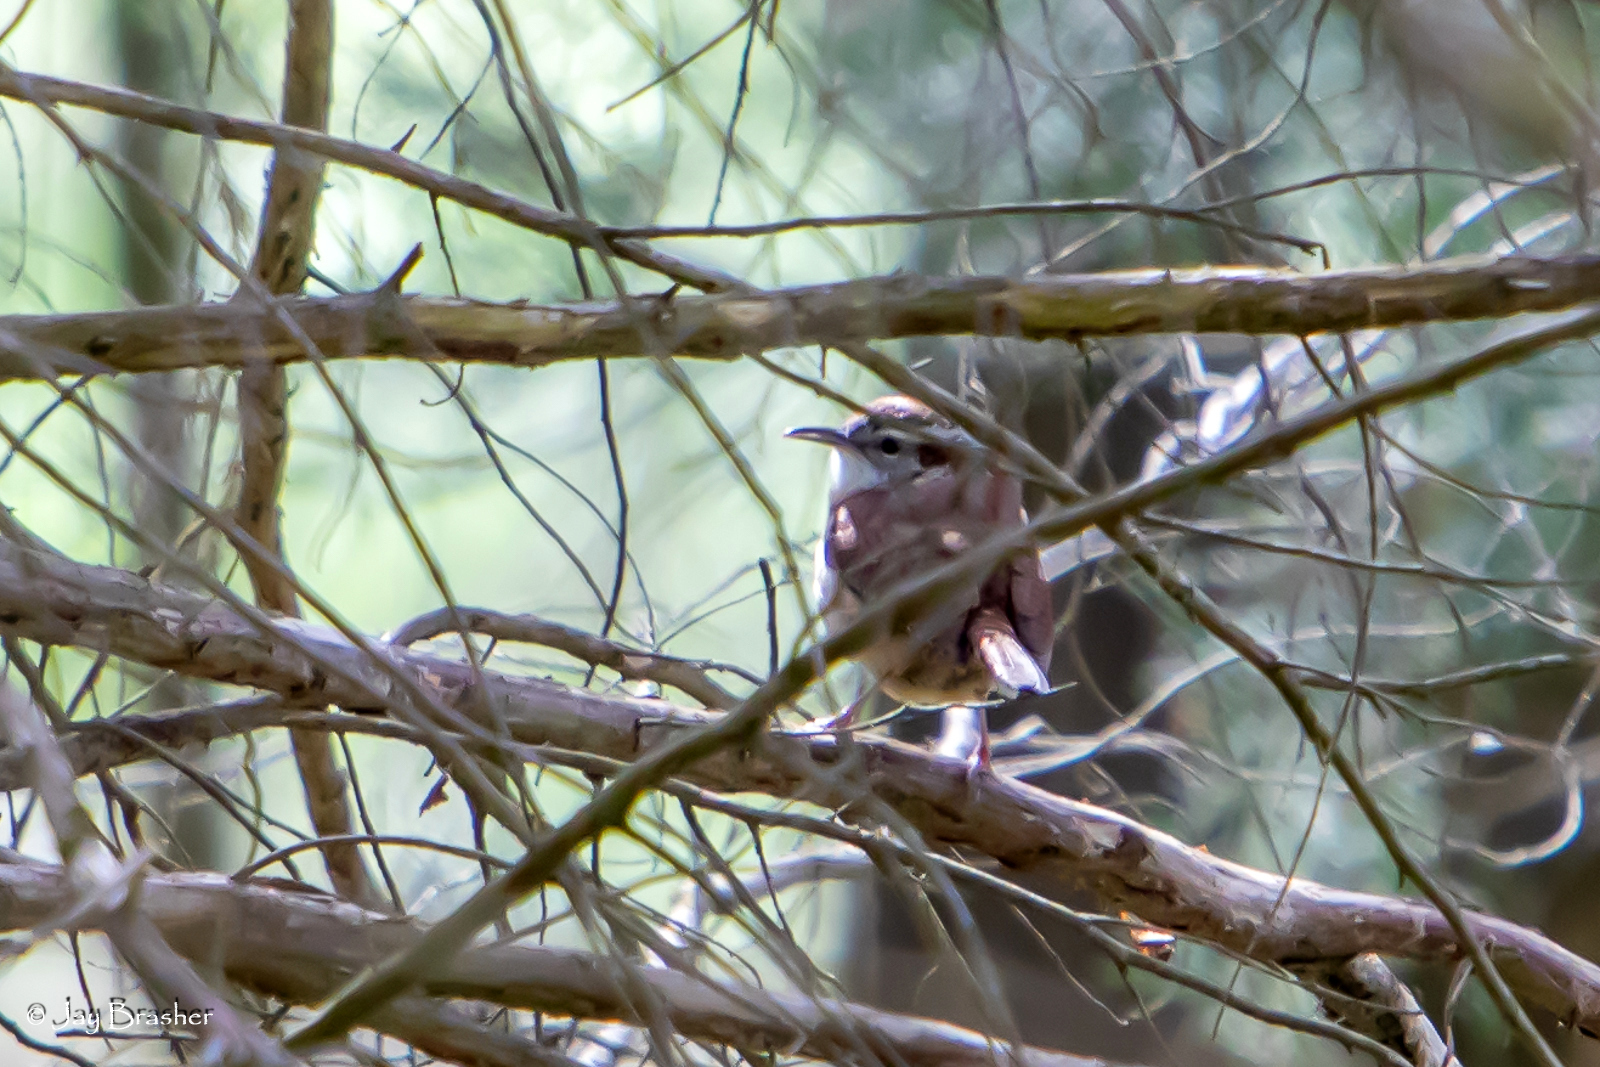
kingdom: Animalia
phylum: Chordata
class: Aves
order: Passeriformes
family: Troglodytidae
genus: Thryothorus
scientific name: Thryothorus ludovicianus
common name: Carolina wren
